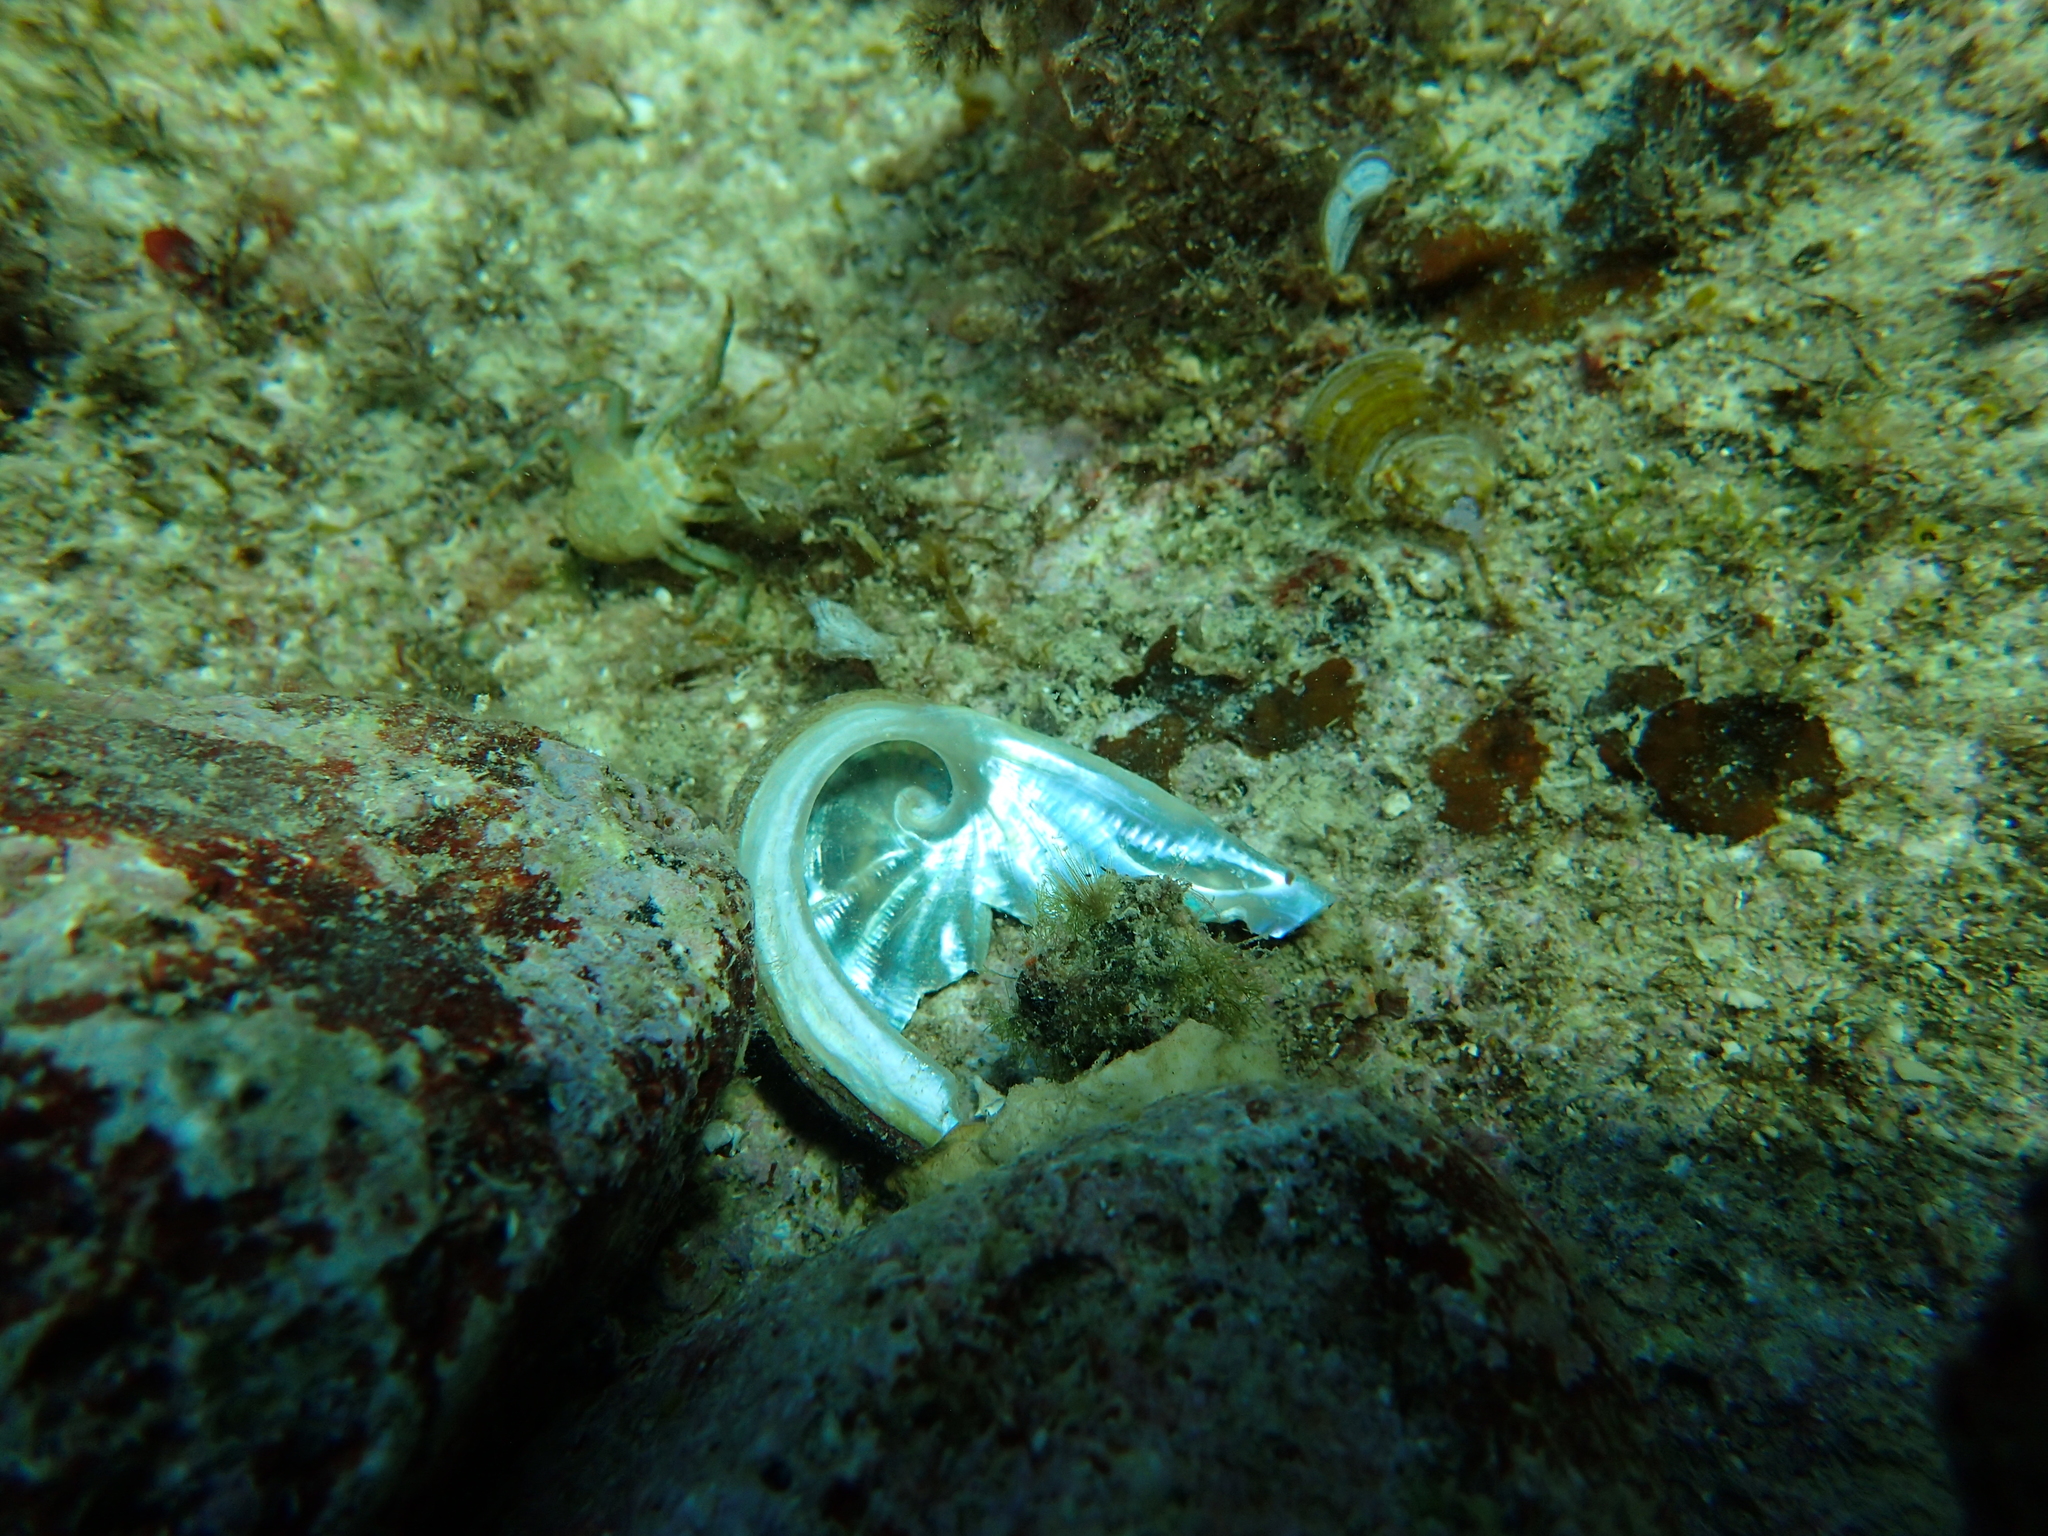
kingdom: Animalia
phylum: Mollusca
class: Gastropoda
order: Lepetellida
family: Haliotidae
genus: Haliotis
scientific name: Haliotis tuberculata
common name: Green ormer
